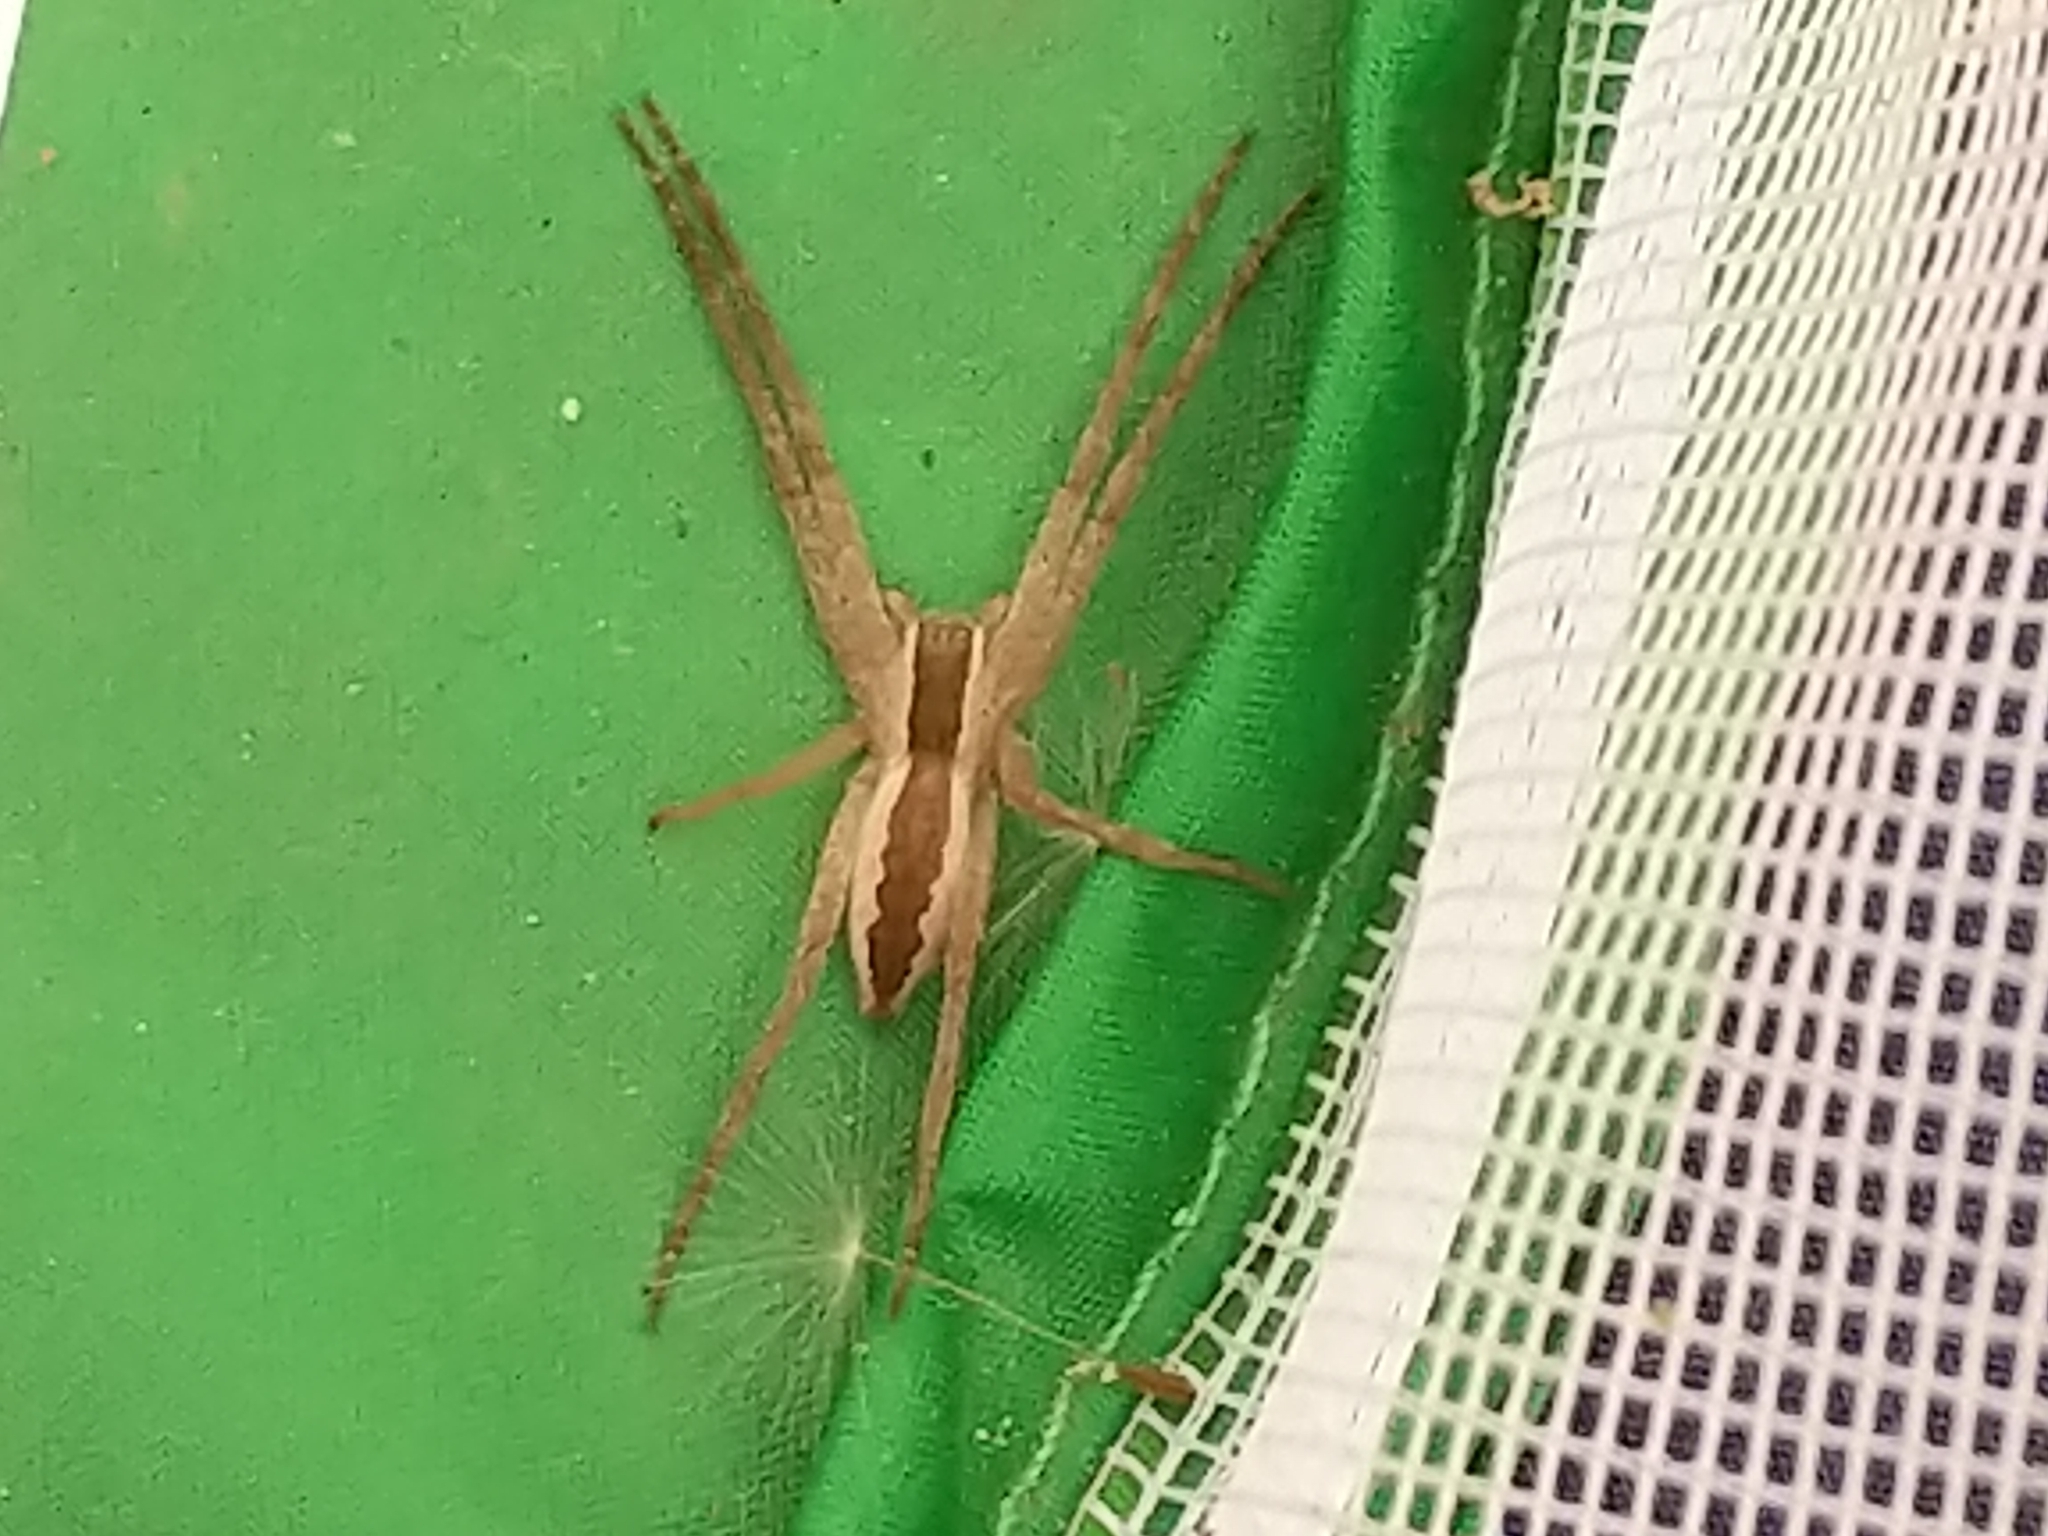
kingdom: Animalia
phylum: Arthropoda
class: Arachnida
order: Araneae
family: Pisauridae
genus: Pisaurina
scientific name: Pisaurina mira
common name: American nursery web spider
